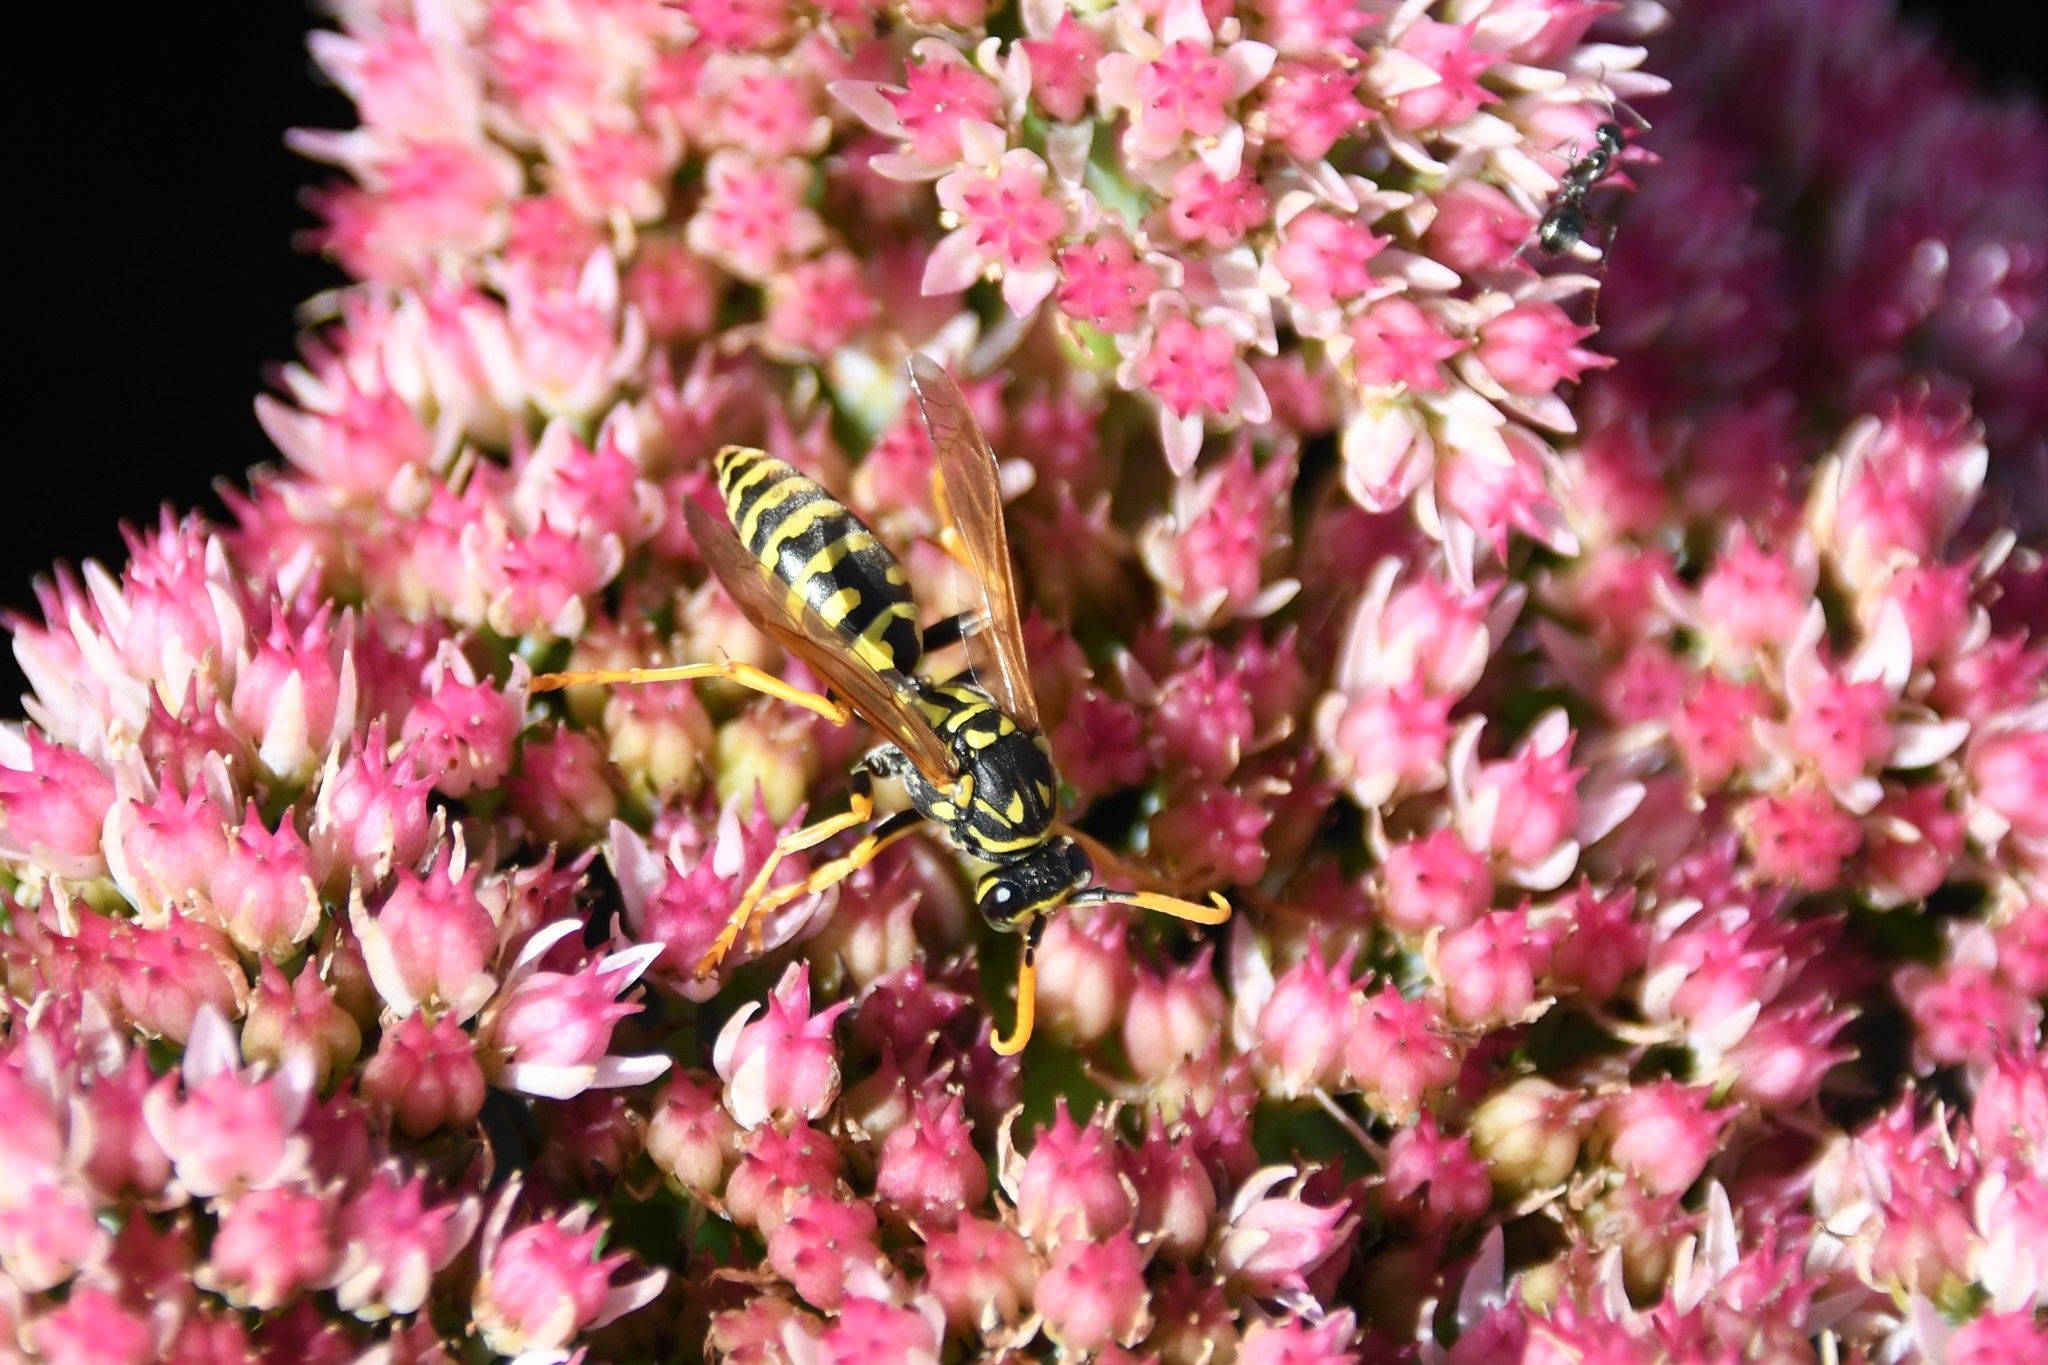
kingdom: Animalia
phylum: Arthropoda
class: Insecta
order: Hymenoptera
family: Eumenidae
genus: Polistes
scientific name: Polistes dominula
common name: Paper wasp
